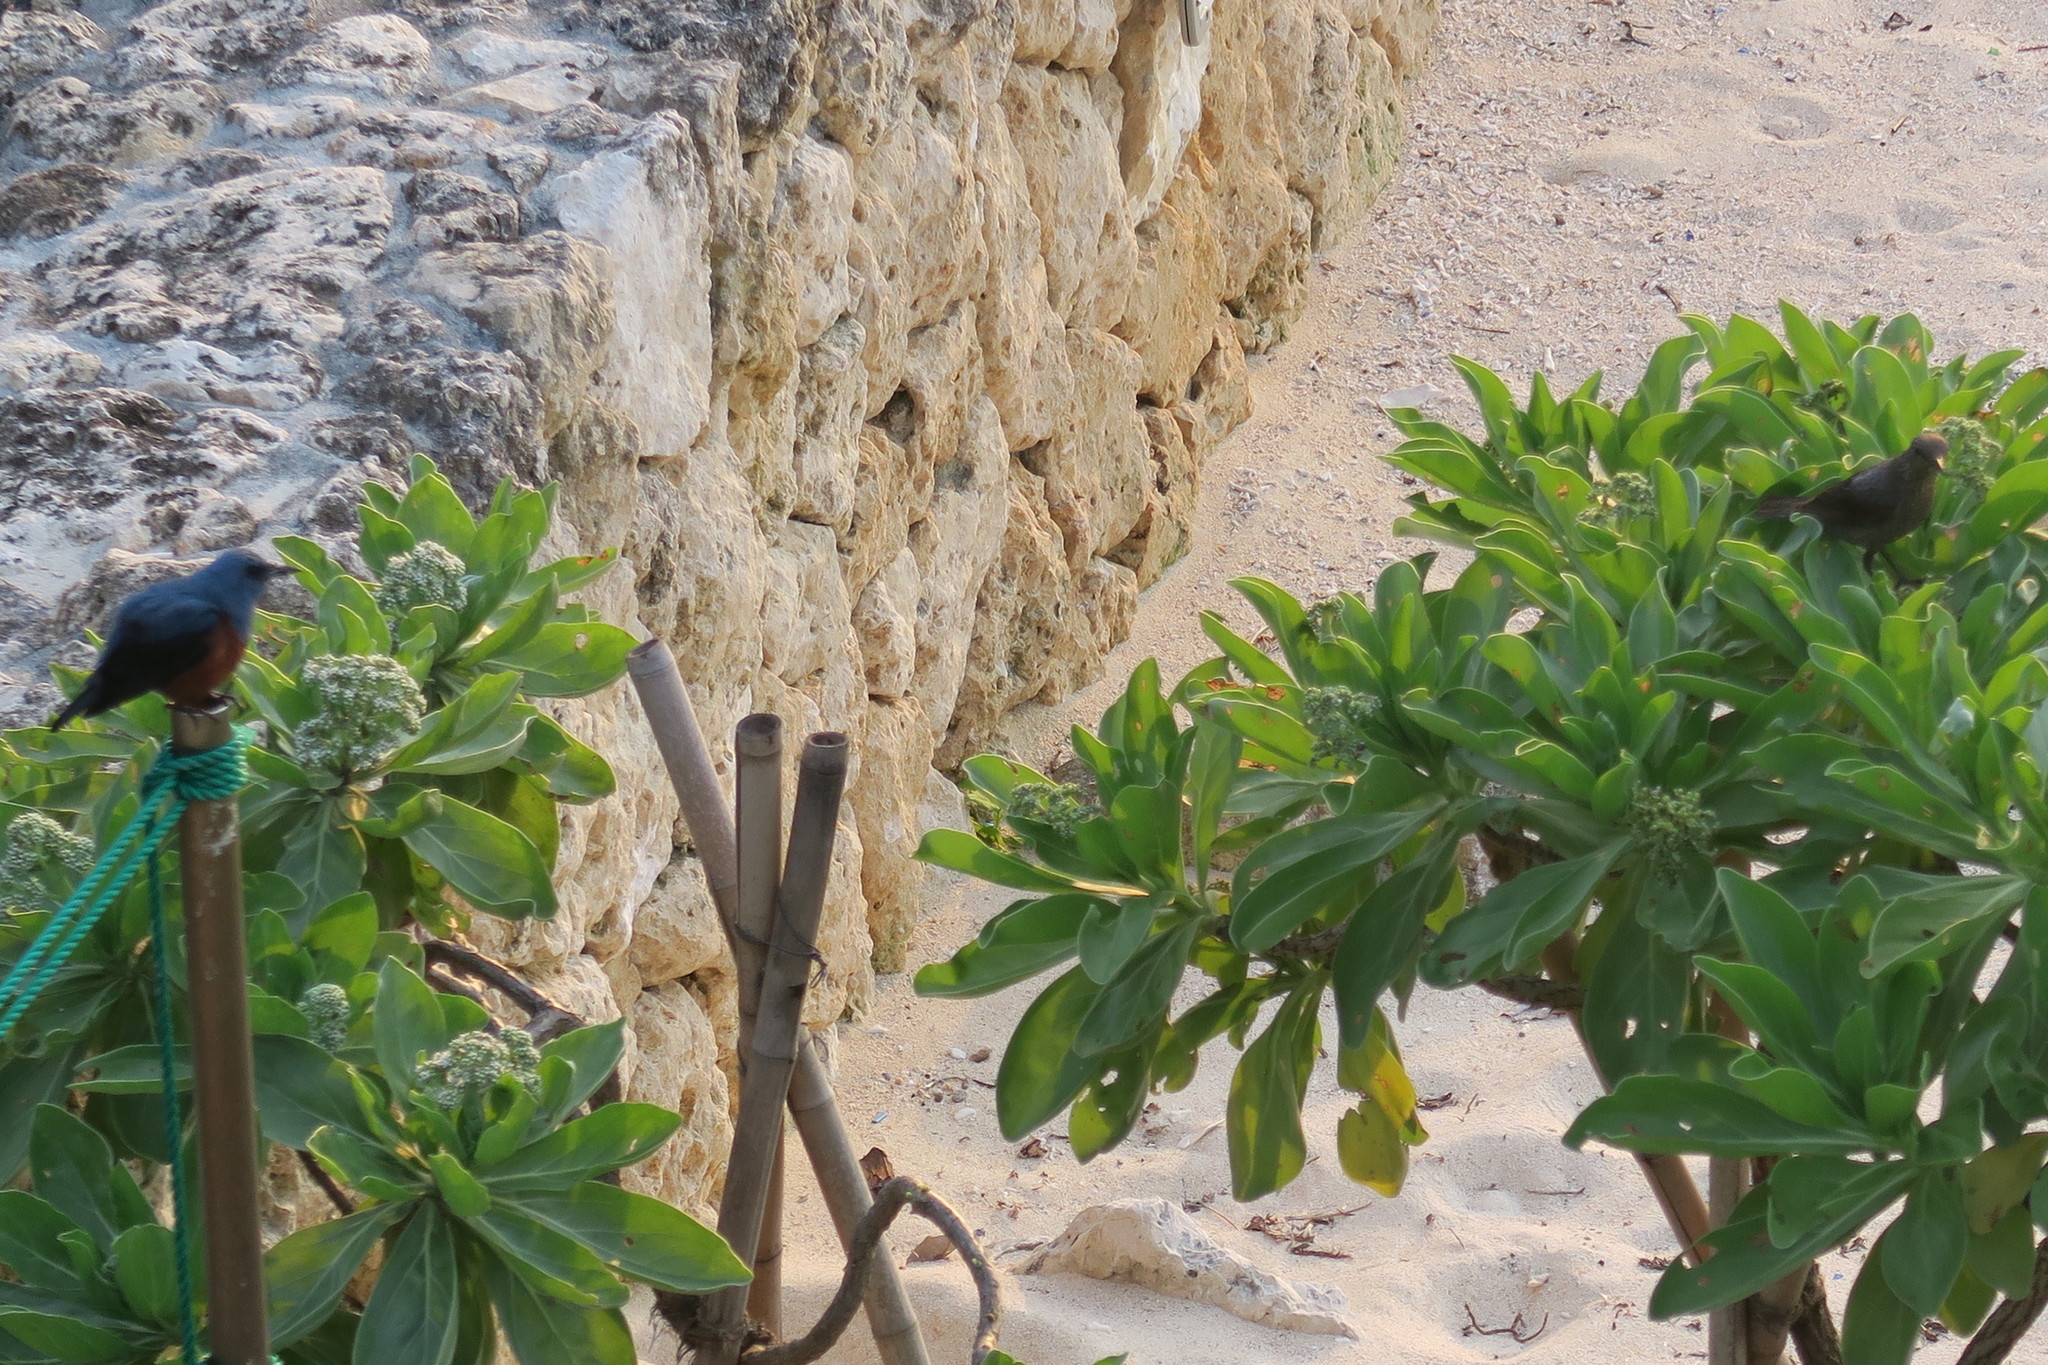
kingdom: Animalia
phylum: Chordata
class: Aves
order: Passeriformes
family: Muscicapidae
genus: Monticola
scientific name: Monticola solitarius
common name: Blue rock thrush
